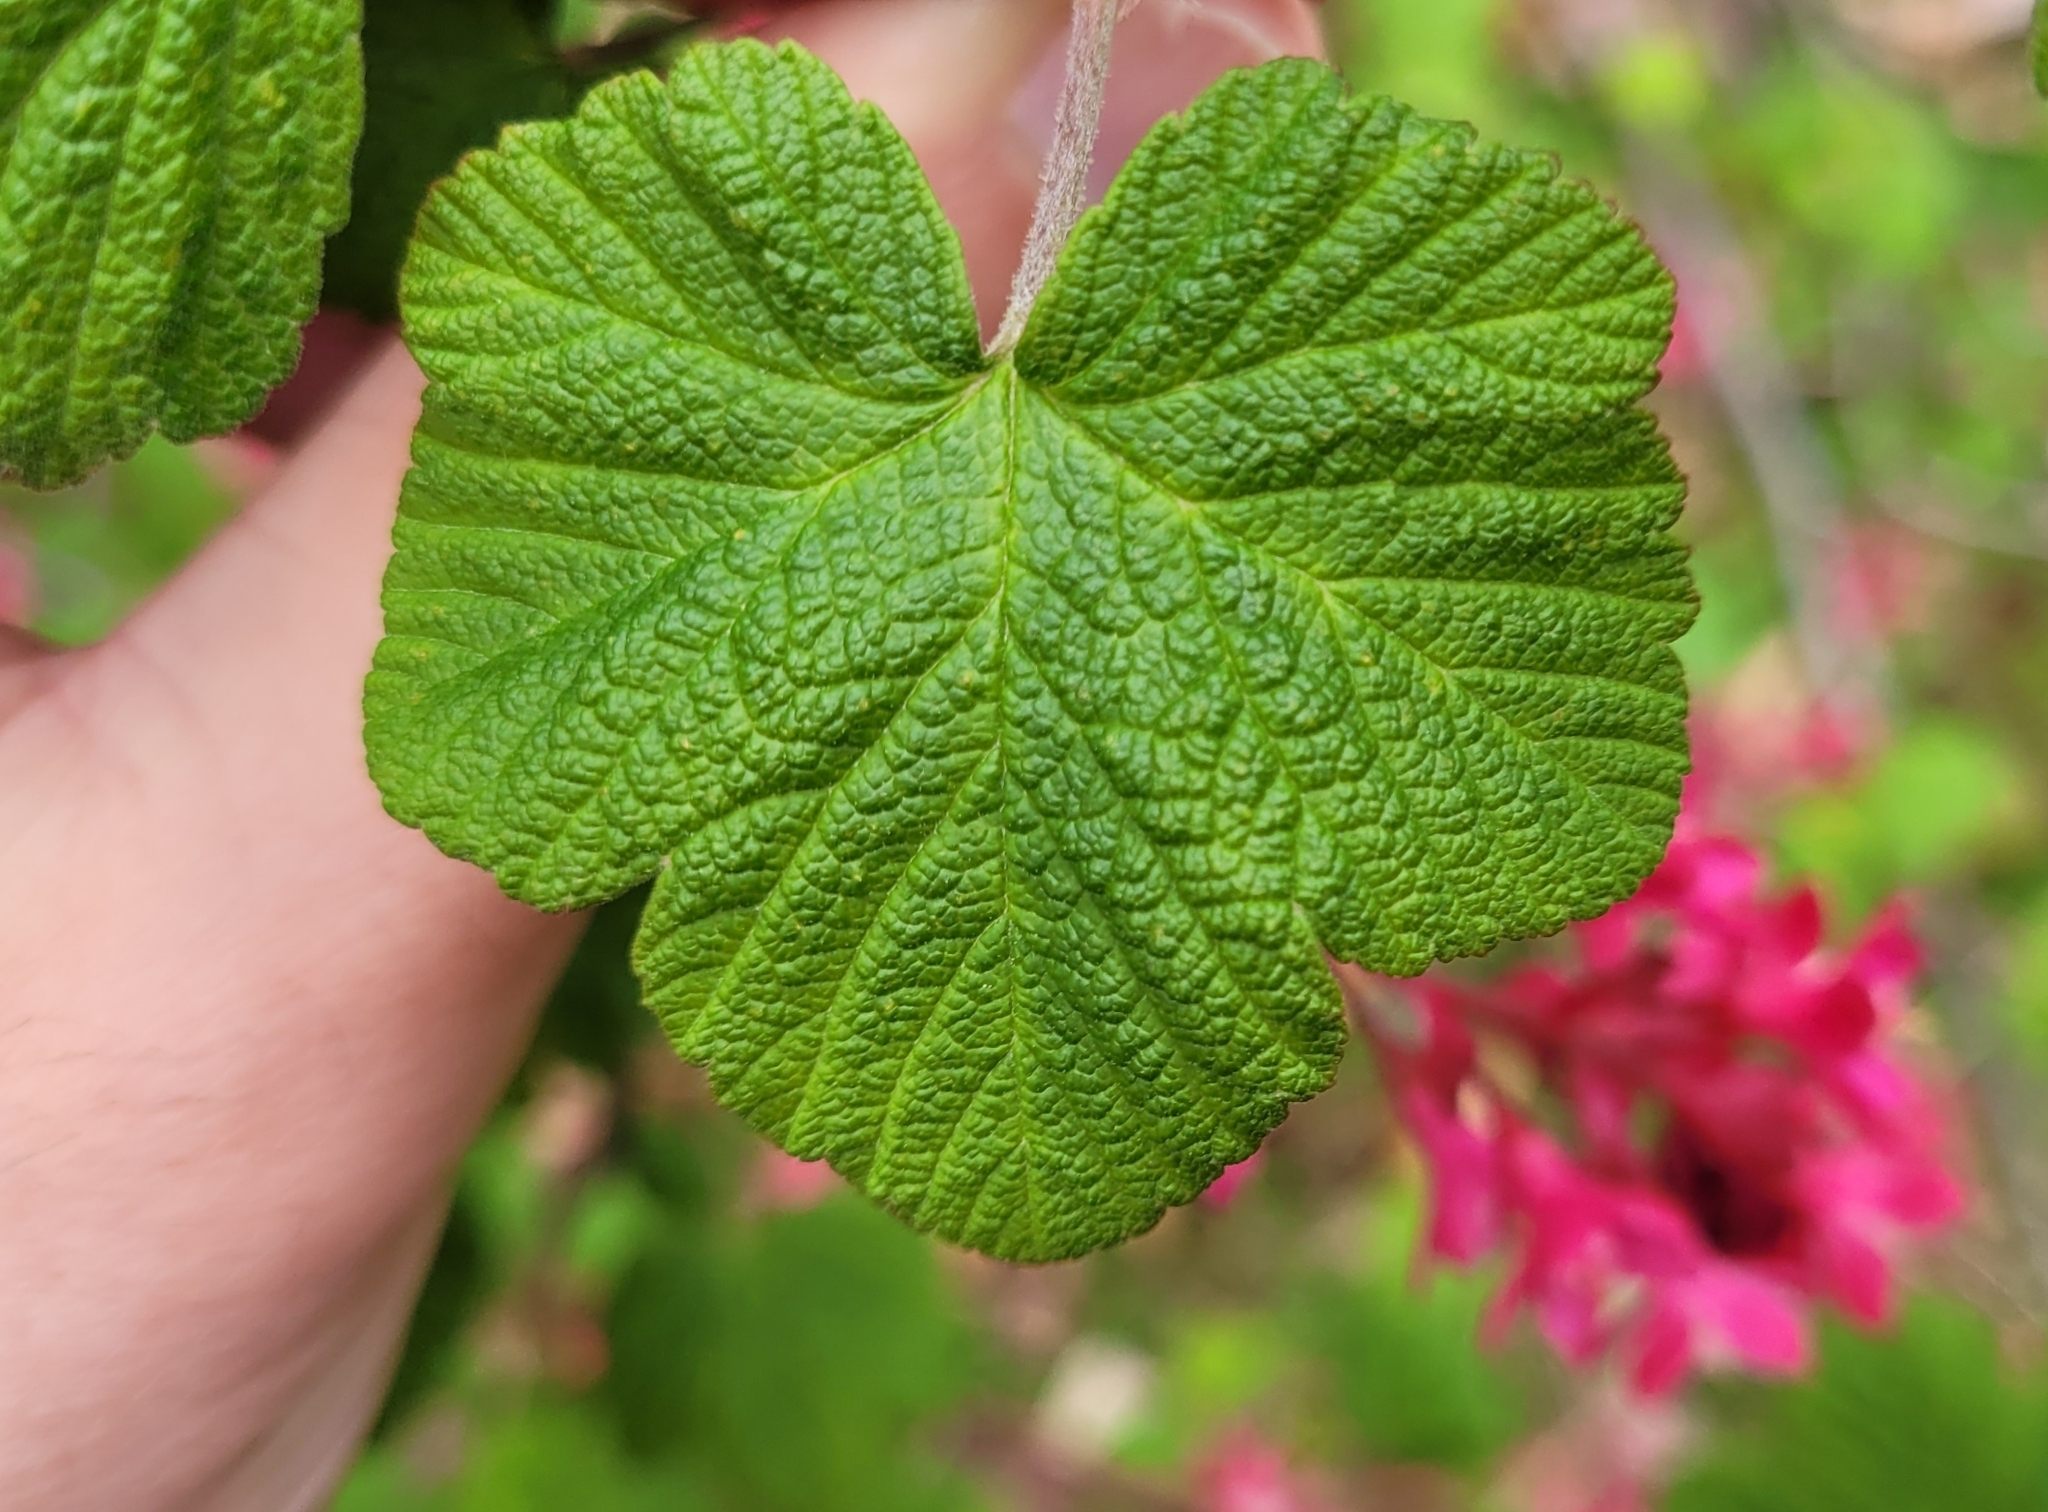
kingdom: Plantae
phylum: Tracheophyta
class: Magnoliopsida
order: Saxifragales
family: Grossulariaceae
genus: Ribes
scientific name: Ribes sanguineum
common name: Flowering currant
